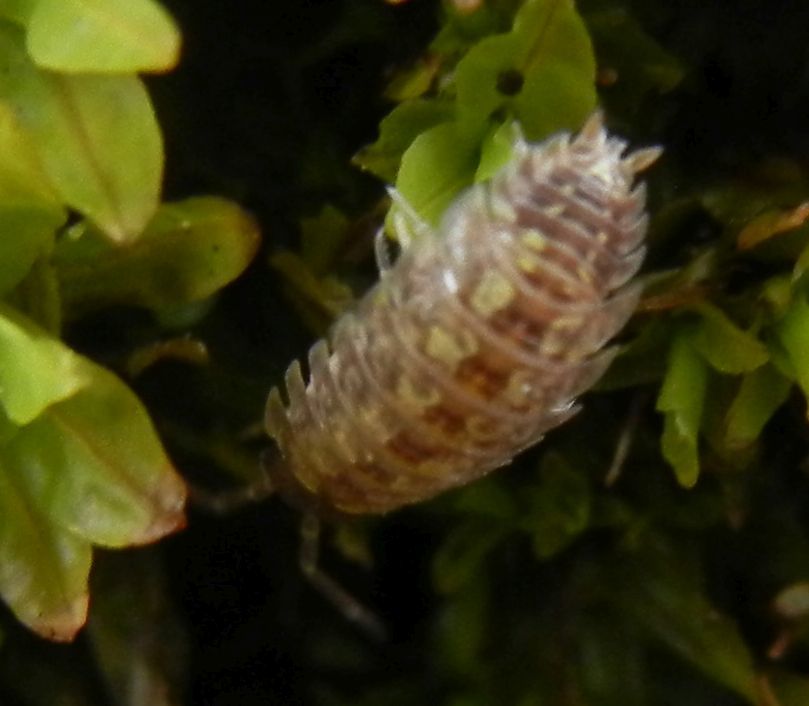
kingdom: Animalia
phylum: Arthropoda
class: Malacostraca
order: Isopoda
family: Porcellionidae
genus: Porcellio
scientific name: Porcellio spinicornis
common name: Painted woodlouse
